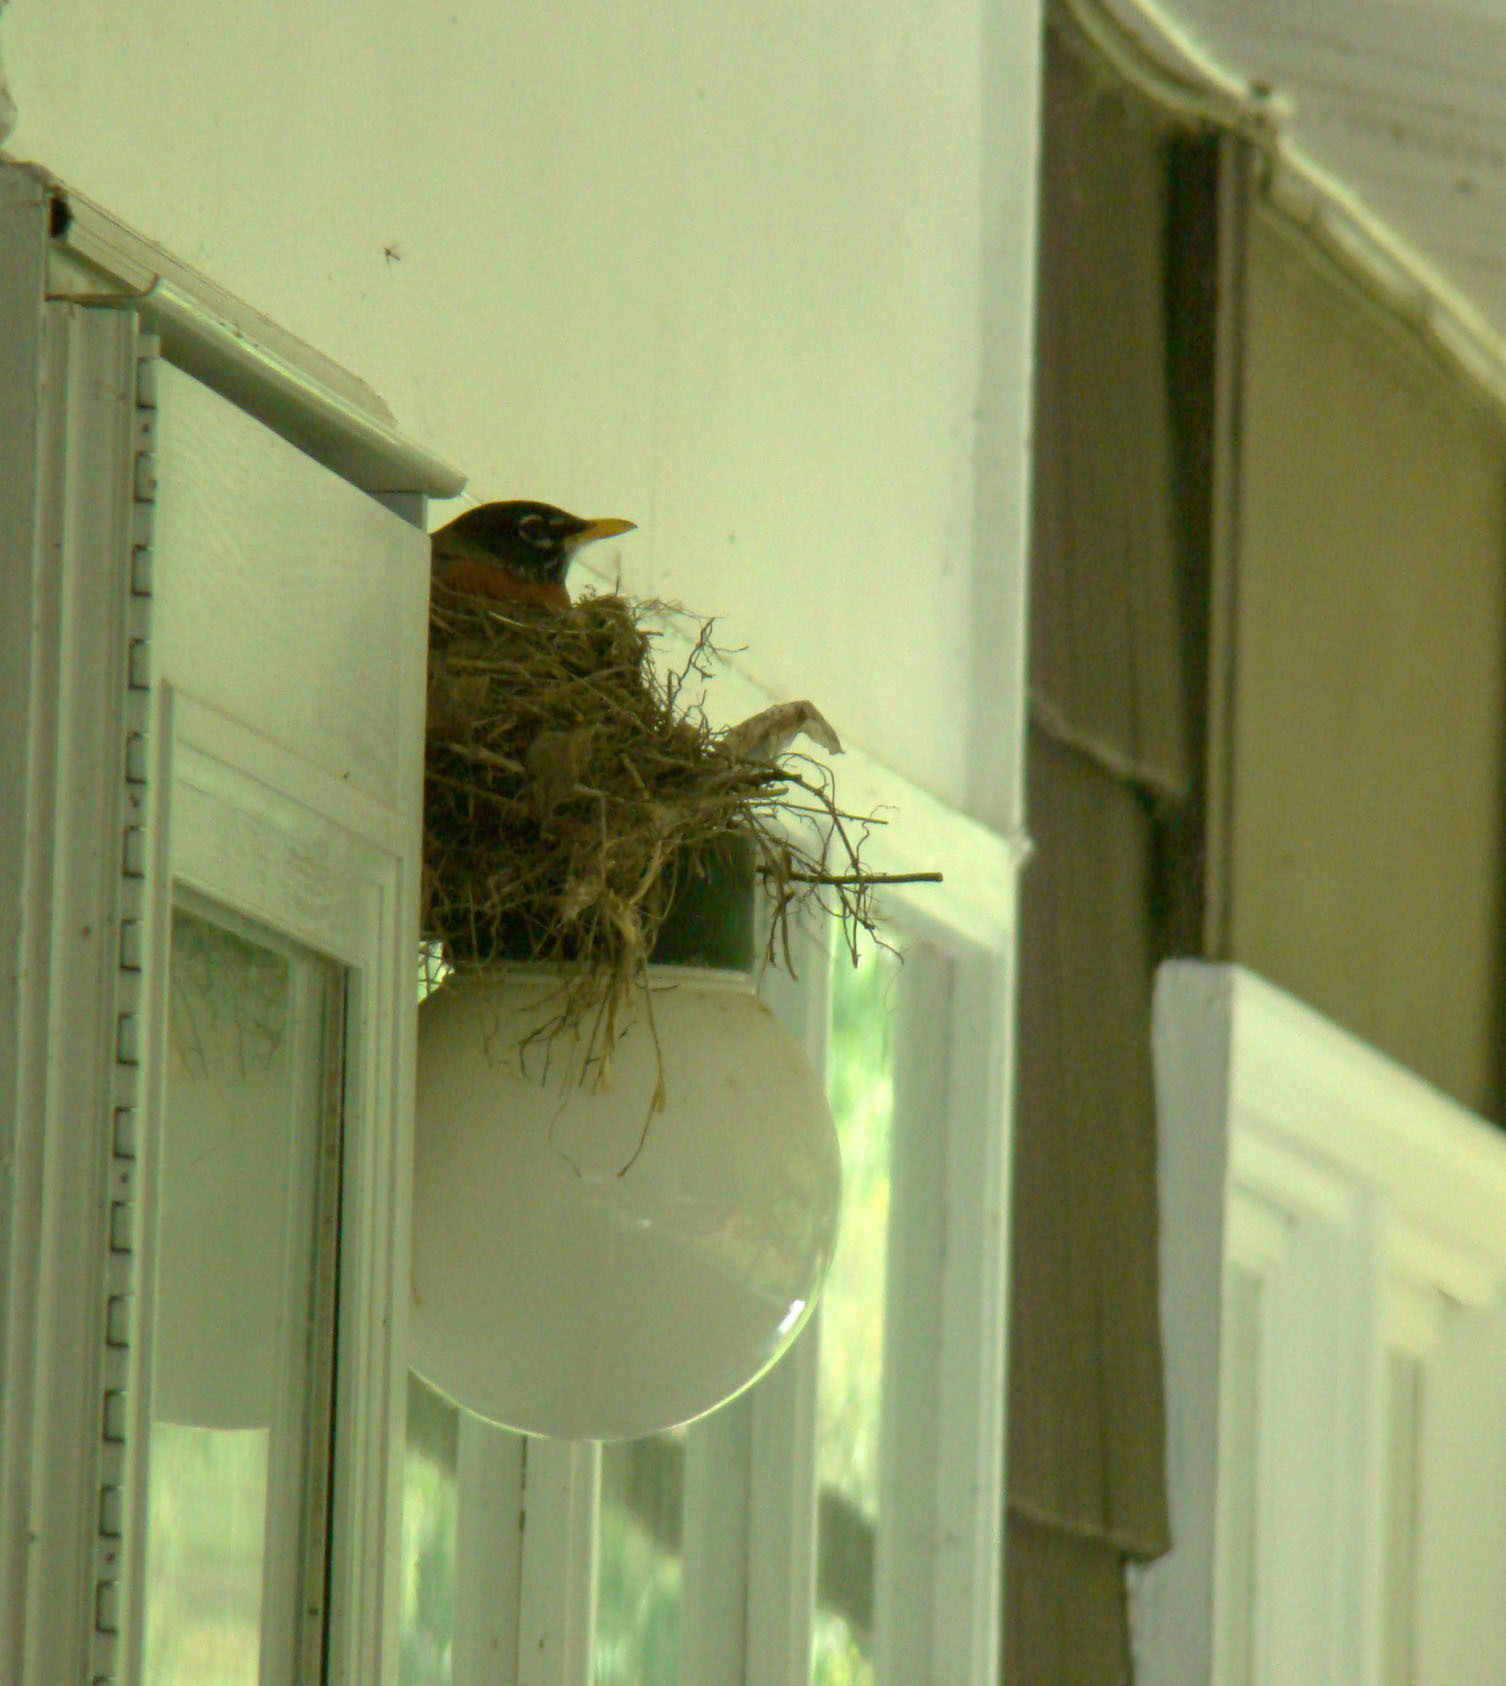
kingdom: Animalia
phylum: Chordata
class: Aves
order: Passeriformes
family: Turdidae
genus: Turdus
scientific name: Turdus migratorius
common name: American robin
